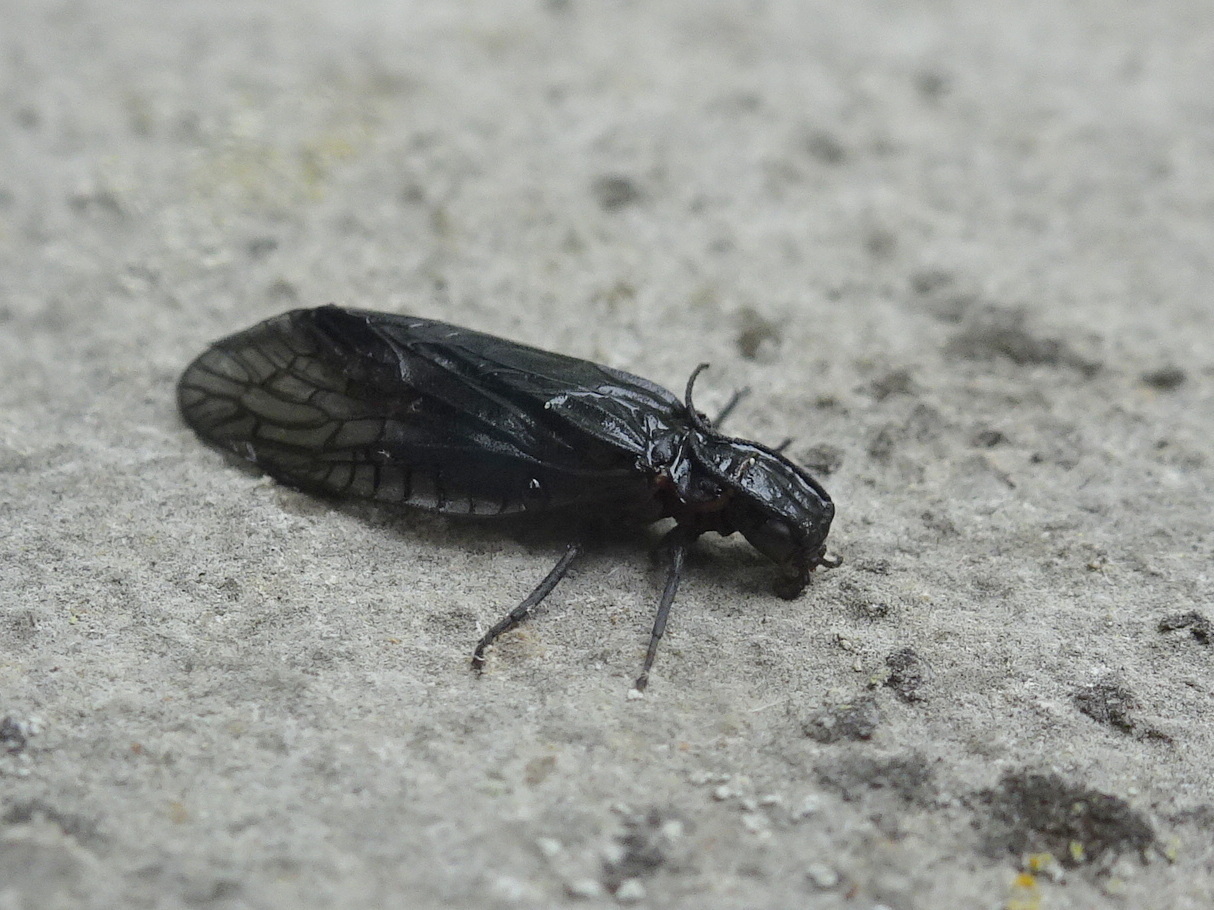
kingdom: Animalia
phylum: Arthropoda
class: Insecta
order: Megaloptera
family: Sialidae
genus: Sialis
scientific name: Sialis
